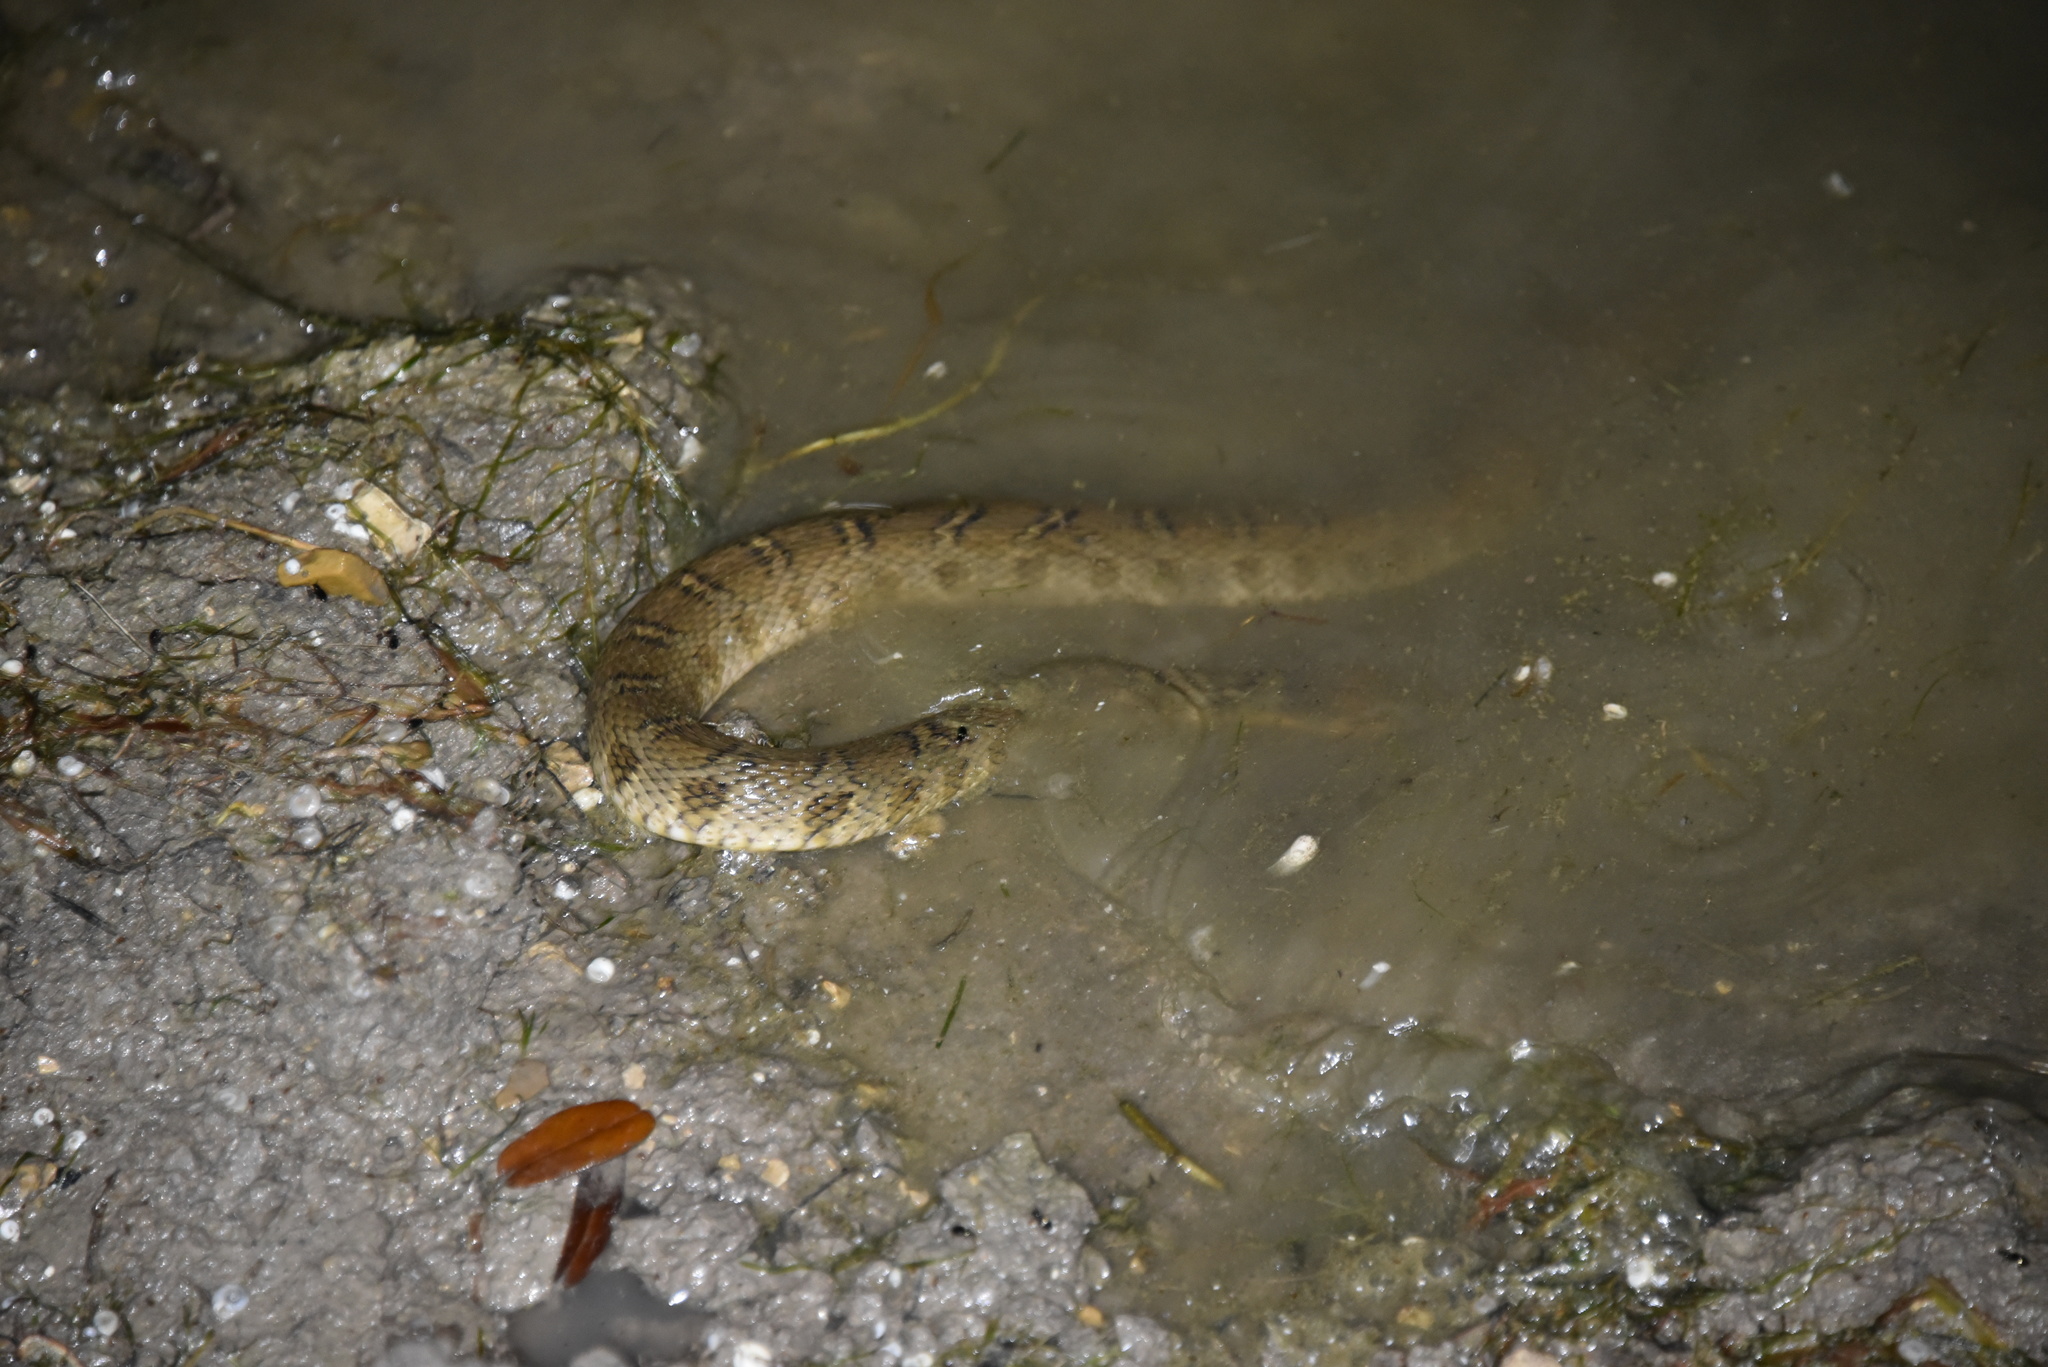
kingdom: Animalia
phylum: Chordata
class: Squamata
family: Colubridae
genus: Nerodia
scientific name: Nerodia erythrogaster
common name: Plainbelly water snake
